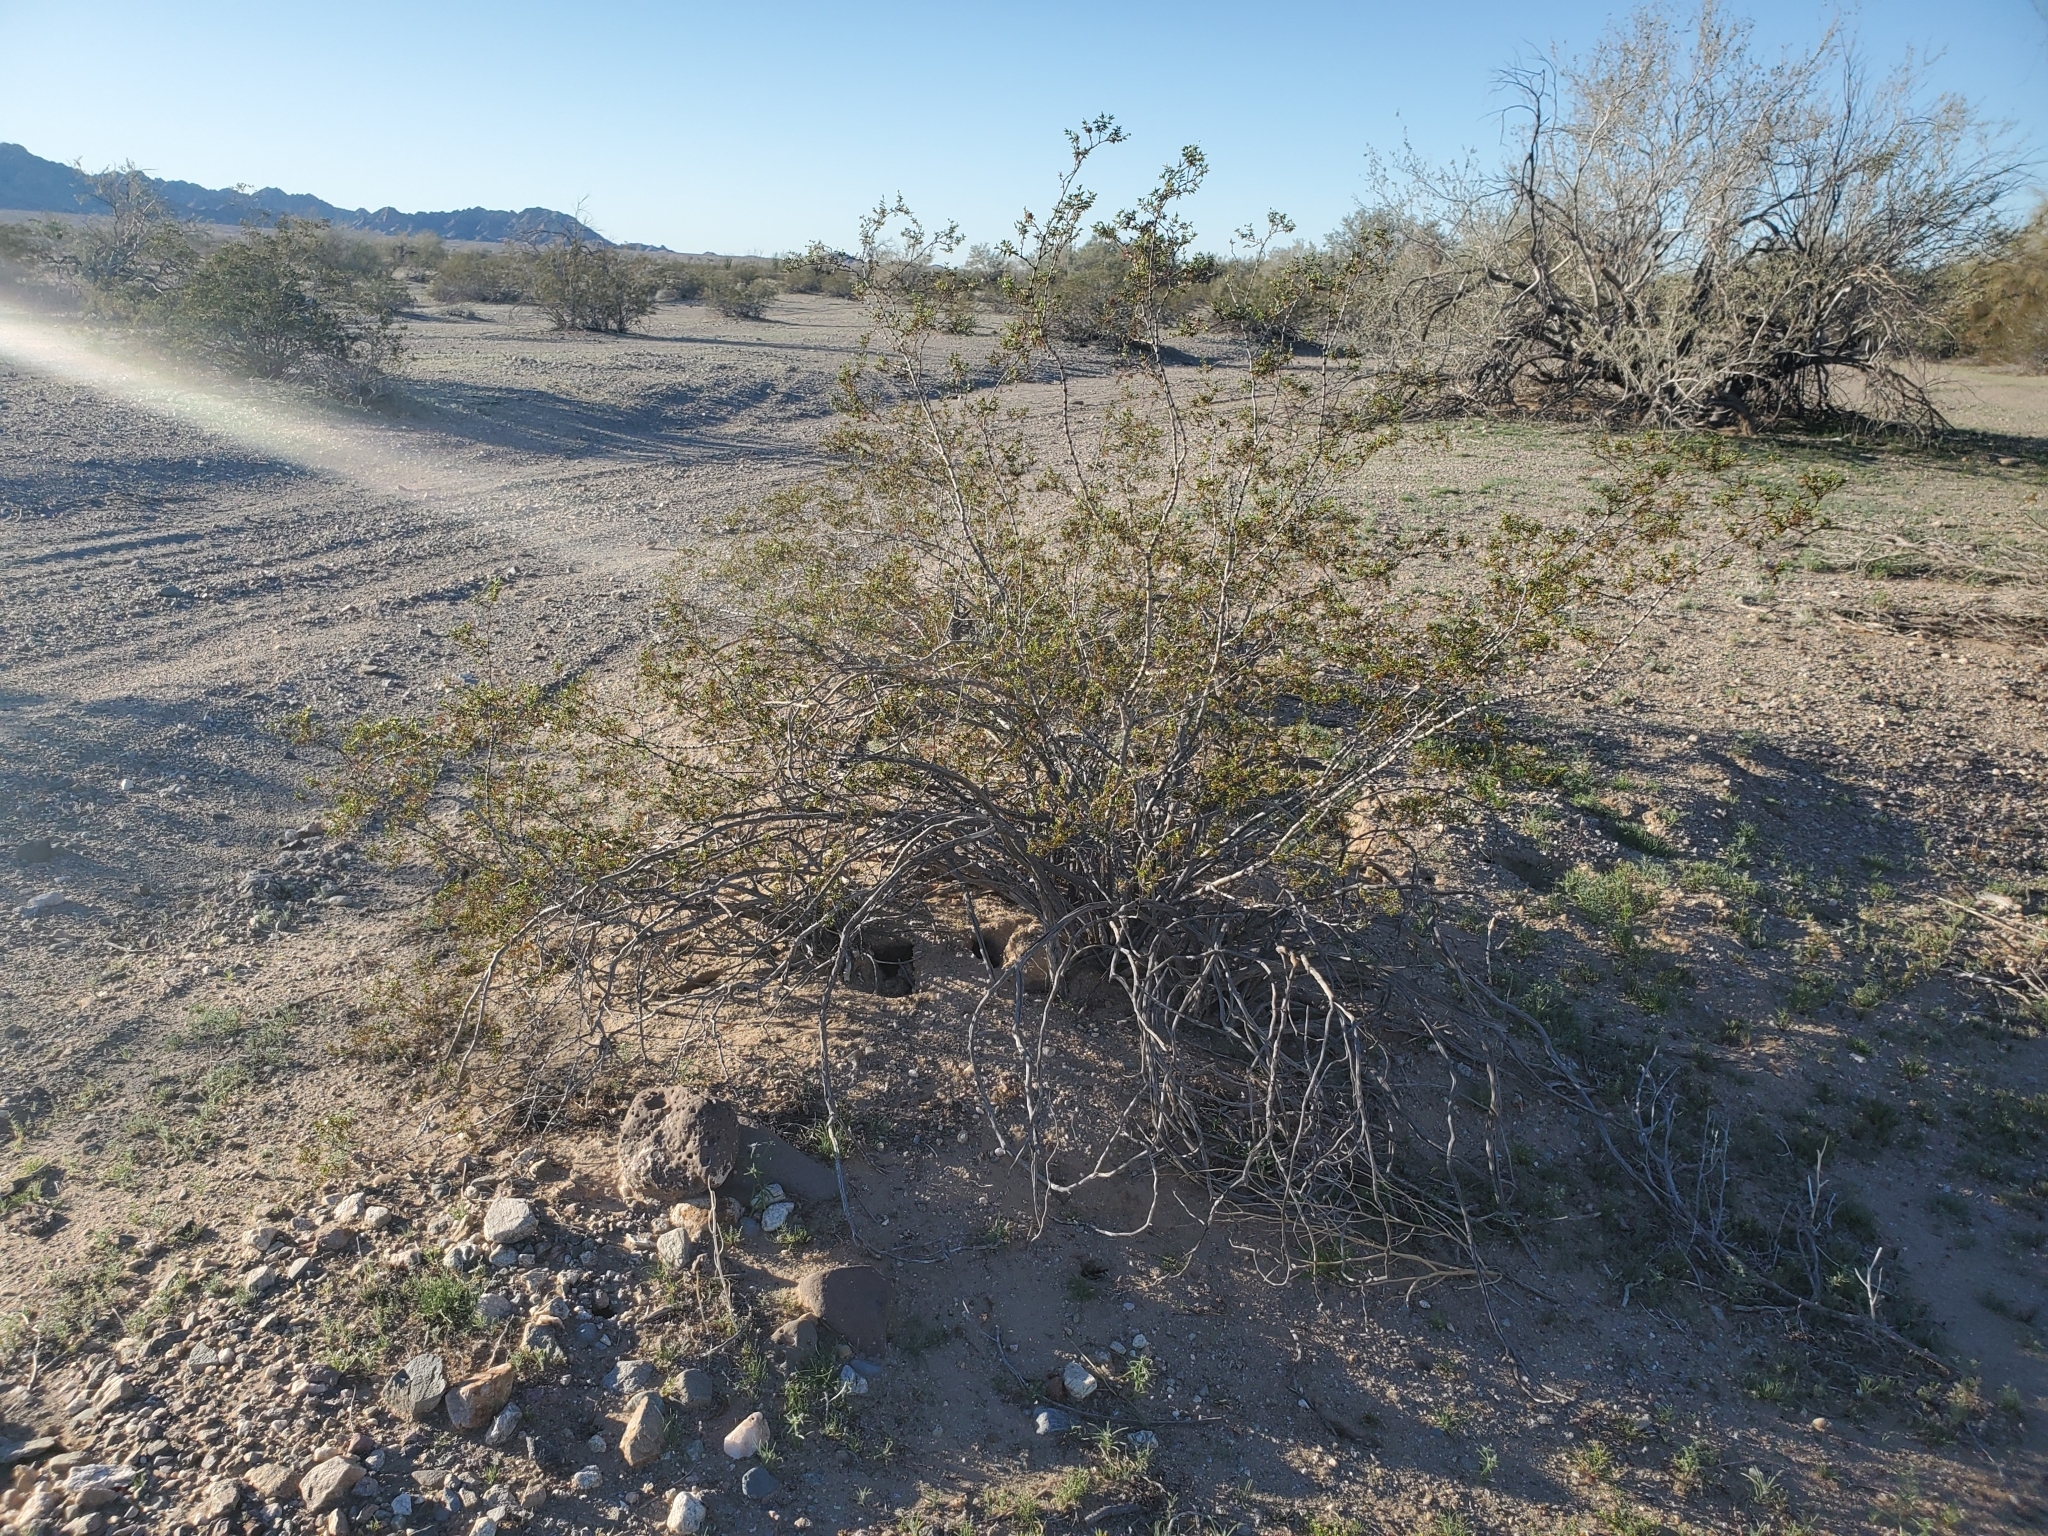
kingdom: Plantae
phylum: Tracheophyta
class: Magnoliopsida
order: Zygophyllales
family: Zygophyllaceae
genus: Larrea
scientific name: Larrea tridentata
